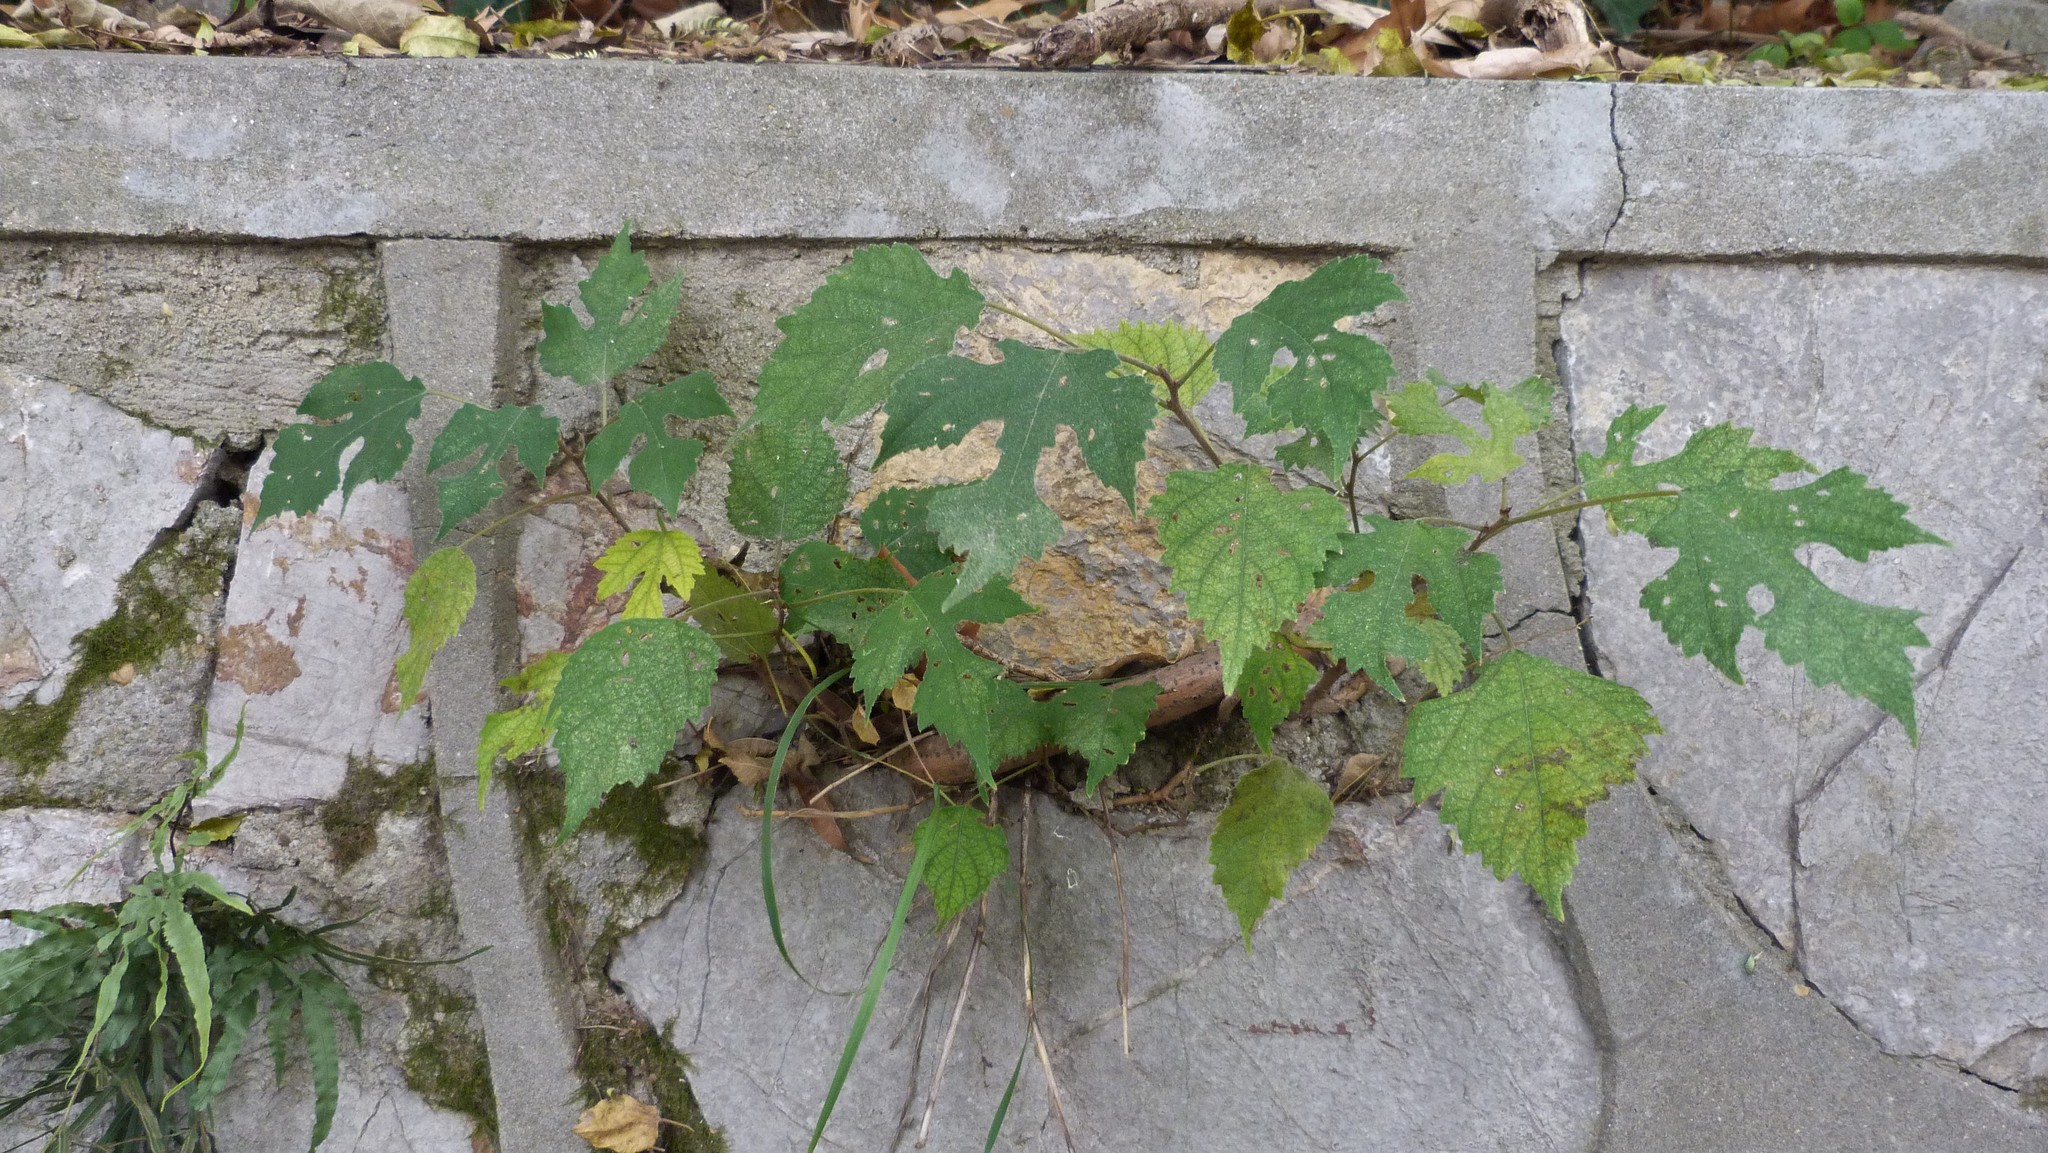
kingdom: Plantae
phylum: Tracheophyta
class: Magnoliopsida
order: Rosales
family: Moraceae
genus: Broussonetia
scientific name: Broussonetia papyrifera
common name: Paper mulberry
